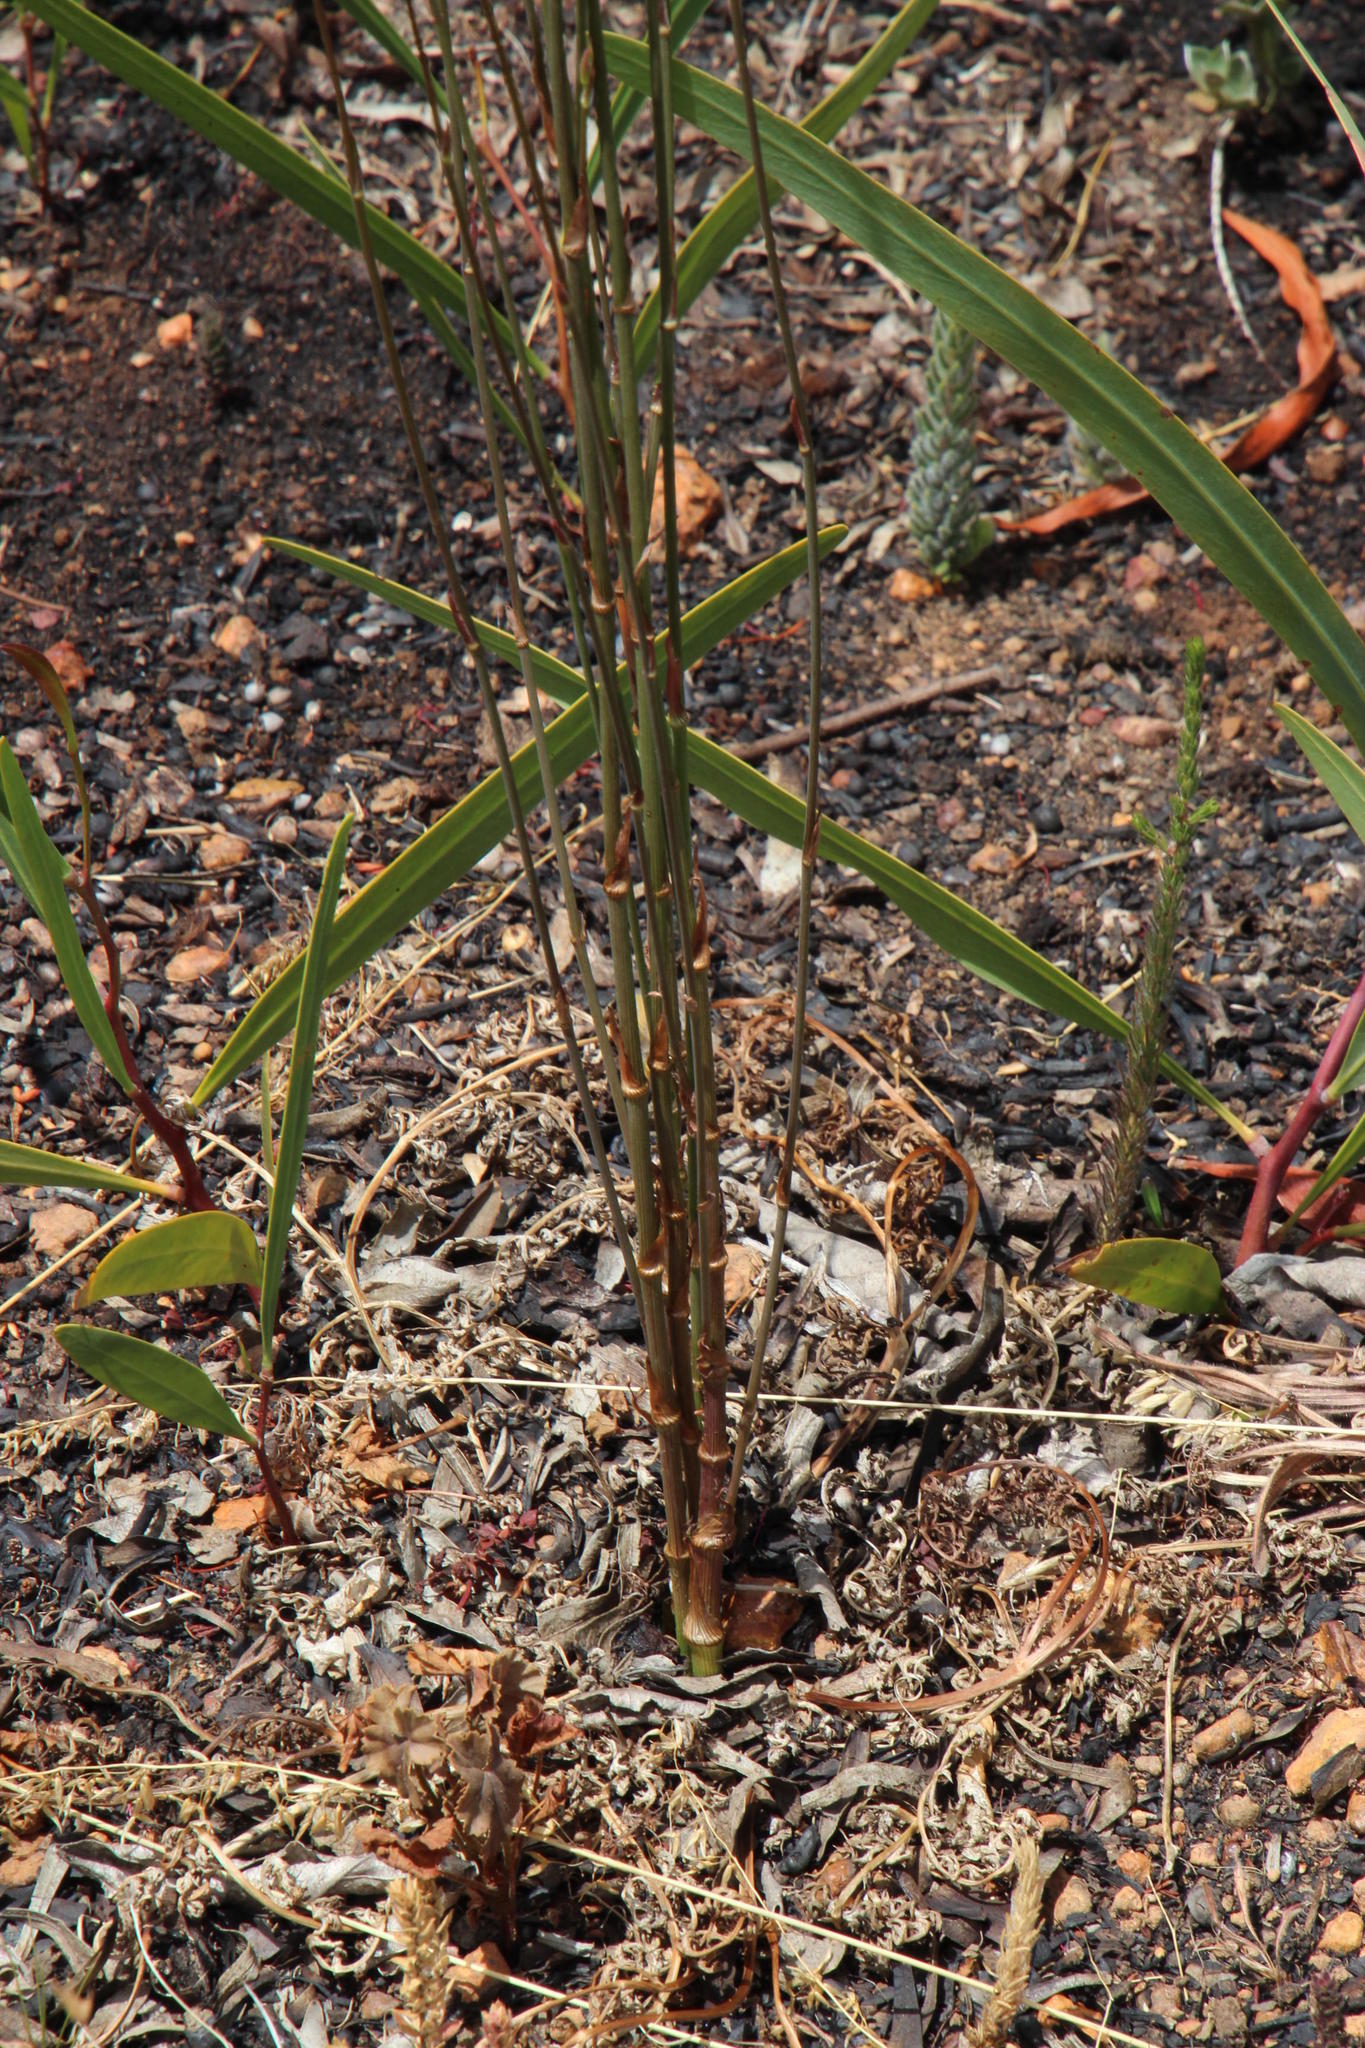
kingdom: Plantae
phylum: Tracheophyta
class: Magnoliopsida
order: Apiales
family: Apiaceae
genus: Annesorhiza
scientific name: Annesorhiza nuda
